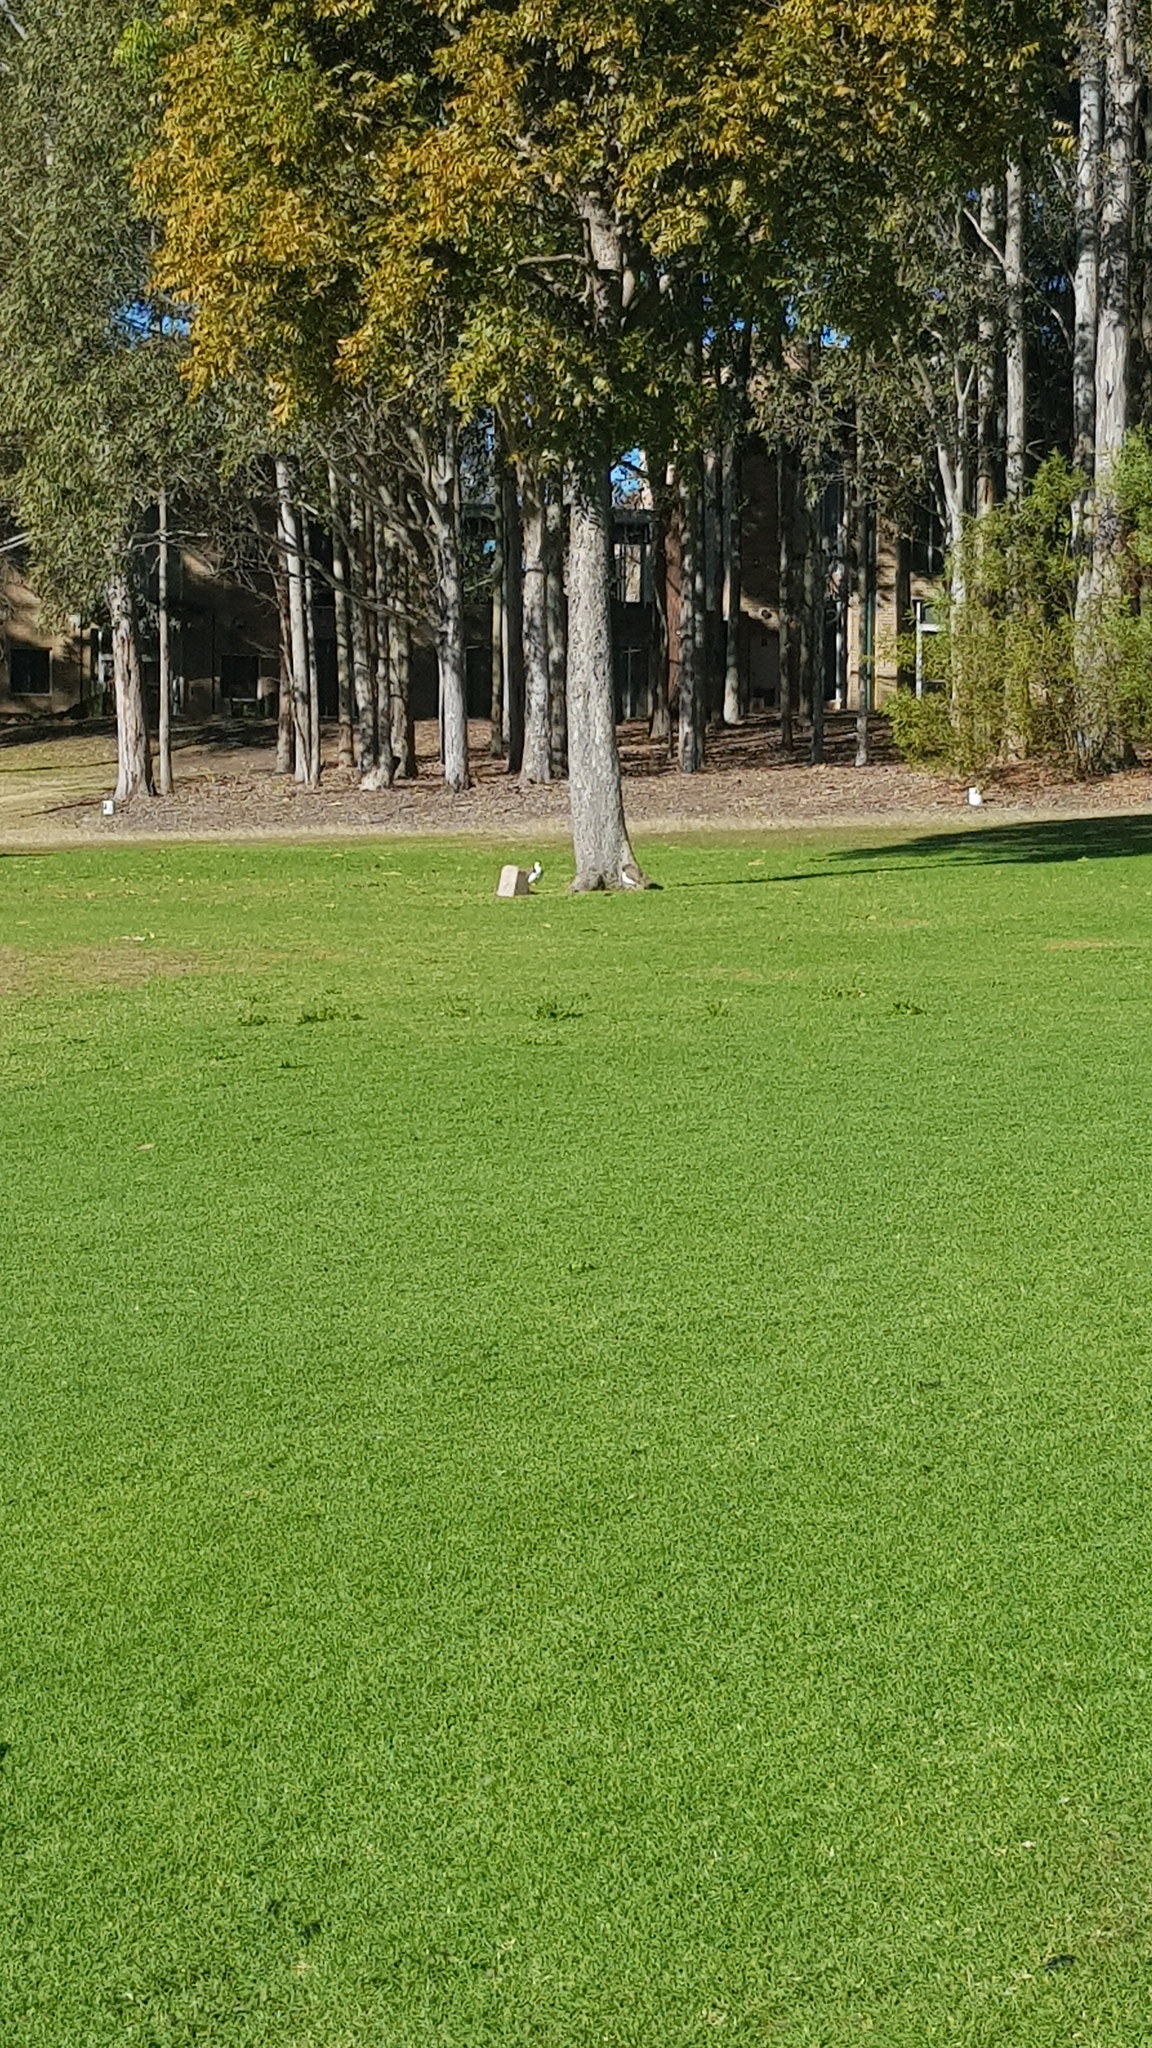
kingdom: Animalia
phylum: Chordata
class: Aves
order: Charadriiformes
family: Charadriidae
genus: Vanellus
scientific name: Vanellus miles
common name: Masked lapwing
